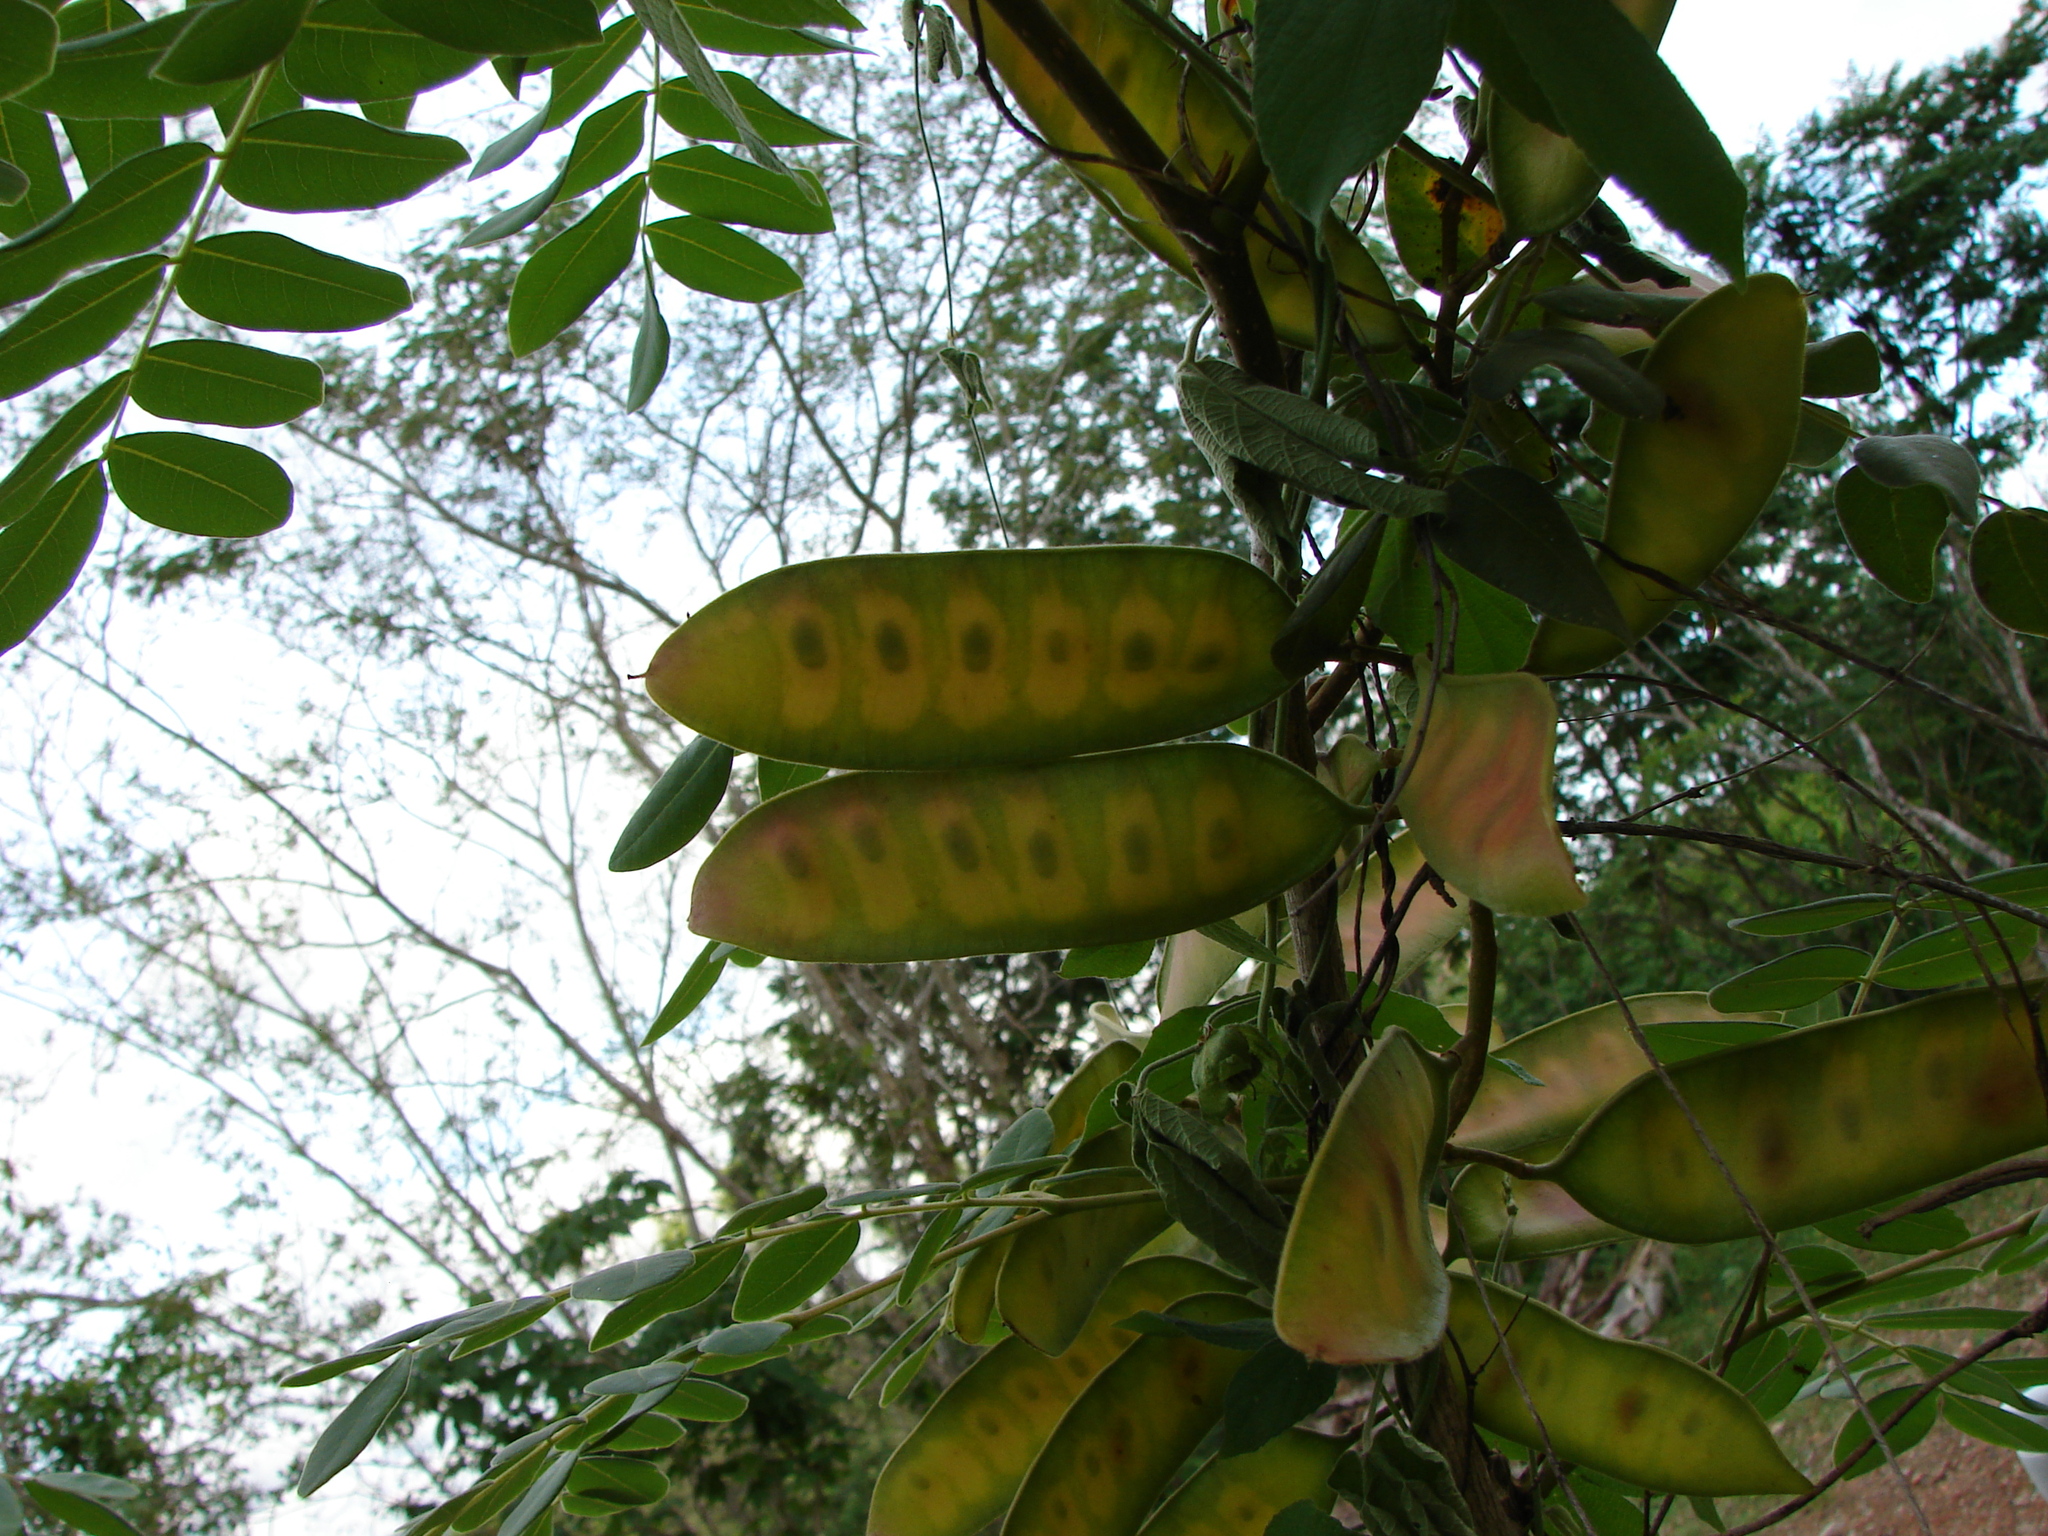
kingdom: Plantae
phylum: Tracheophyta
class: Magnoliopsida
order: Fabales
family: Fabaceae
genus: Coulteria
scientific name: Coulteria platyloba
